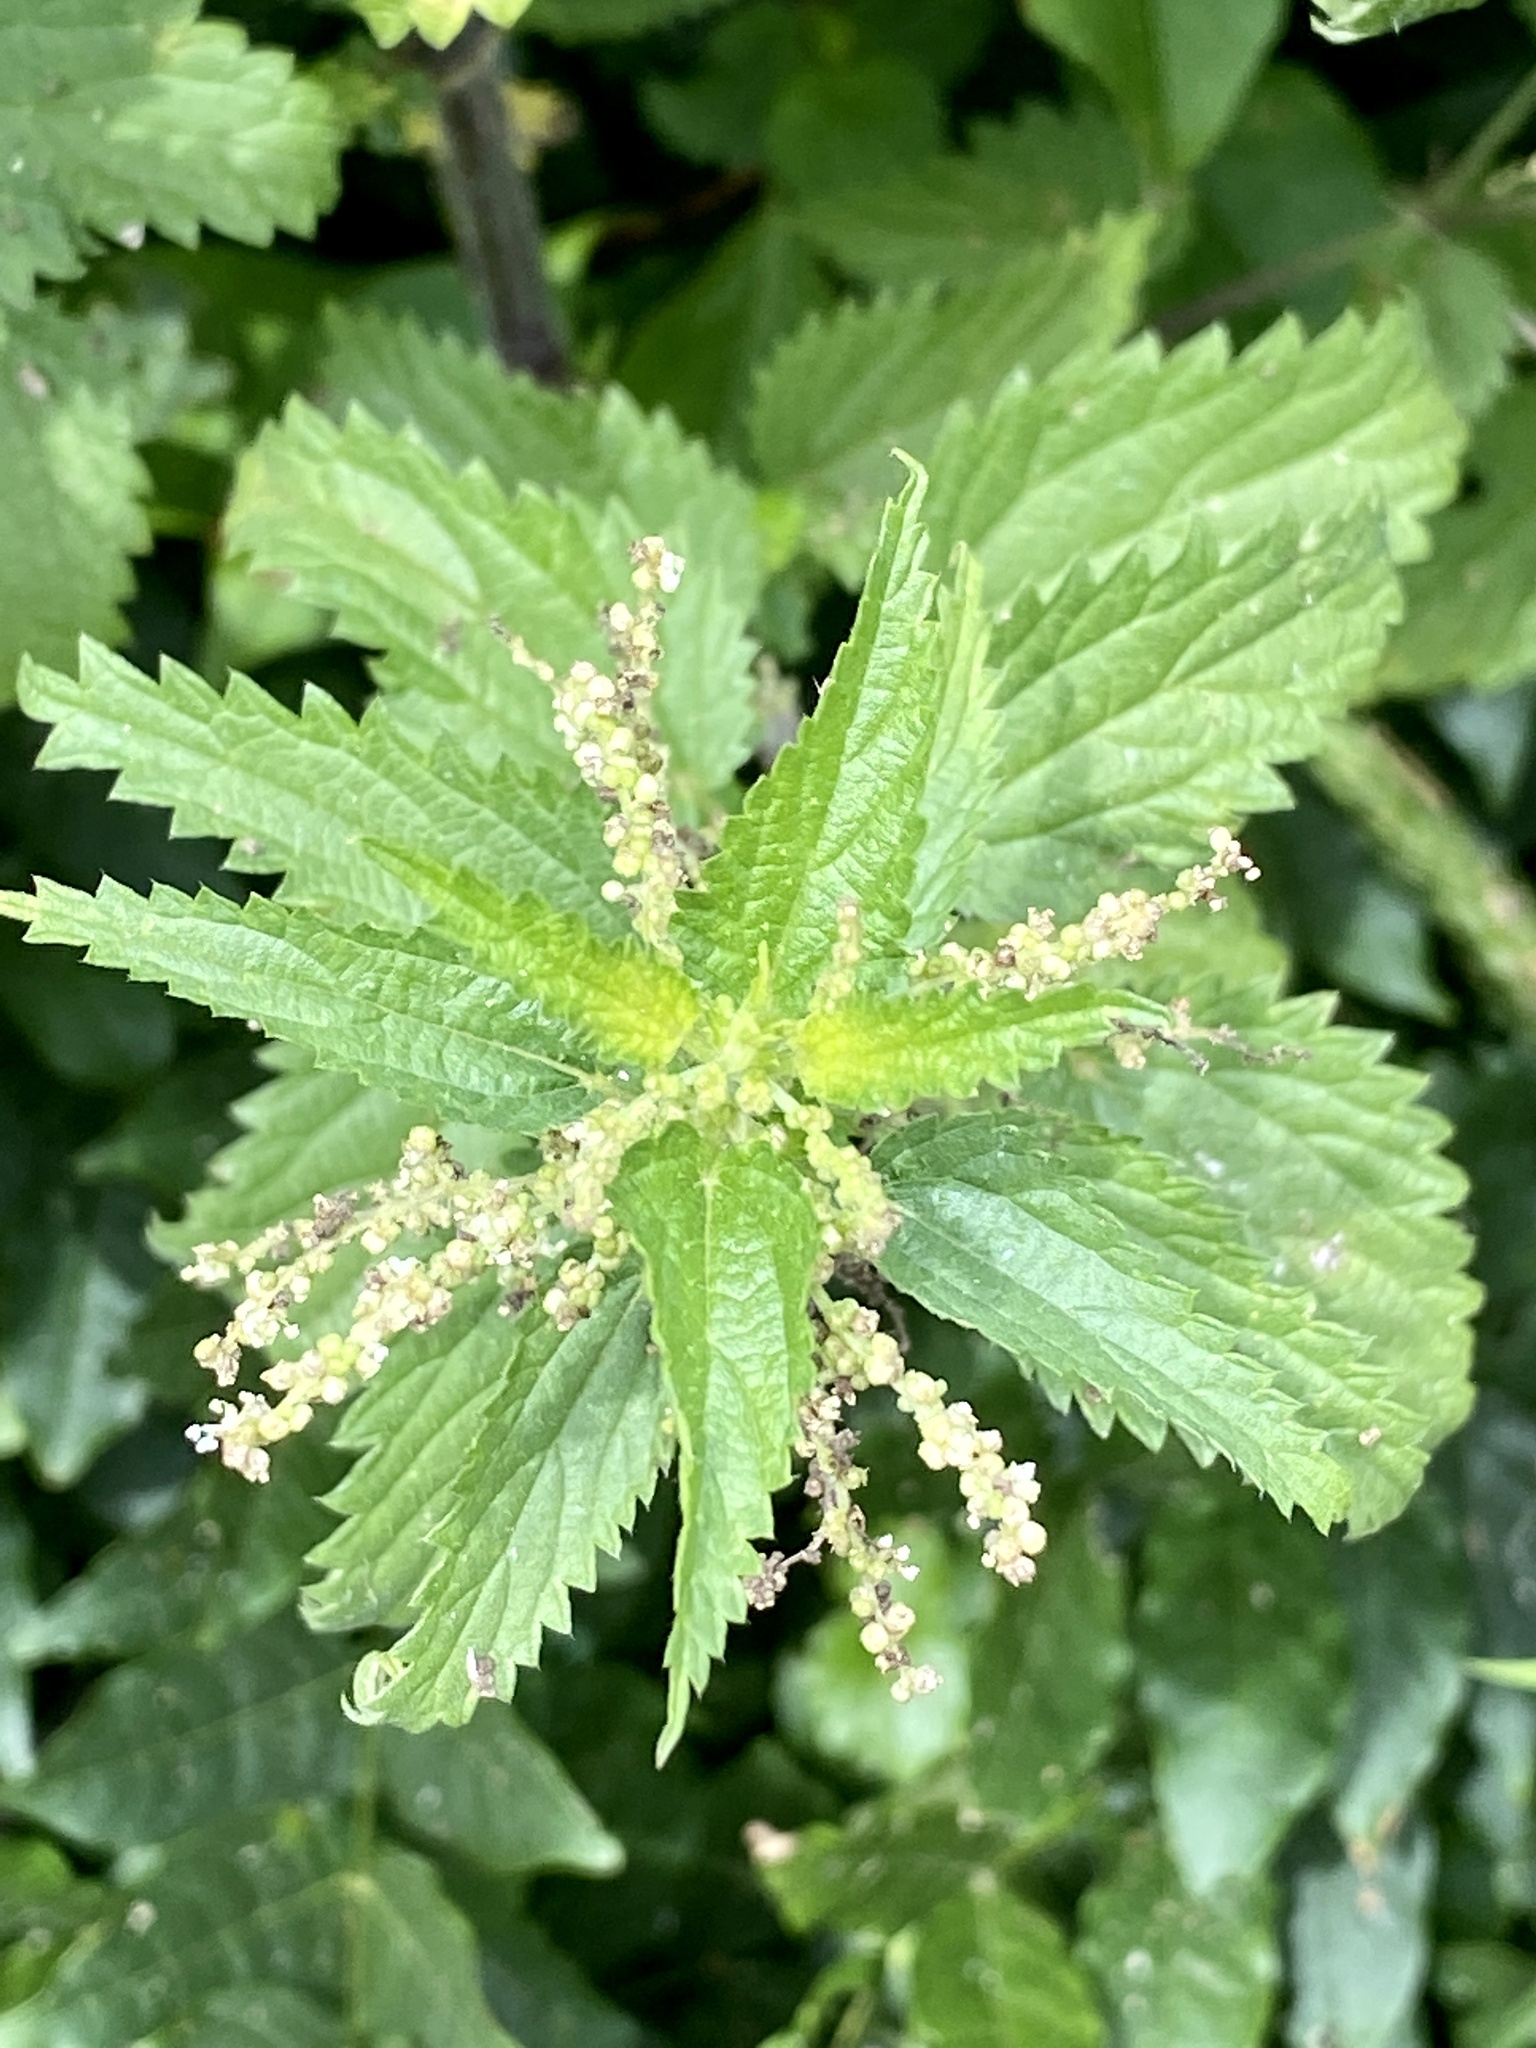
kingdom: Plantae
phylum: Tracheophyta
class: Magnoliopsida
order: Rosales
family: Urticaceae
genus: Urtica
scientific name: Urtica dioica
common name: Common nettle
